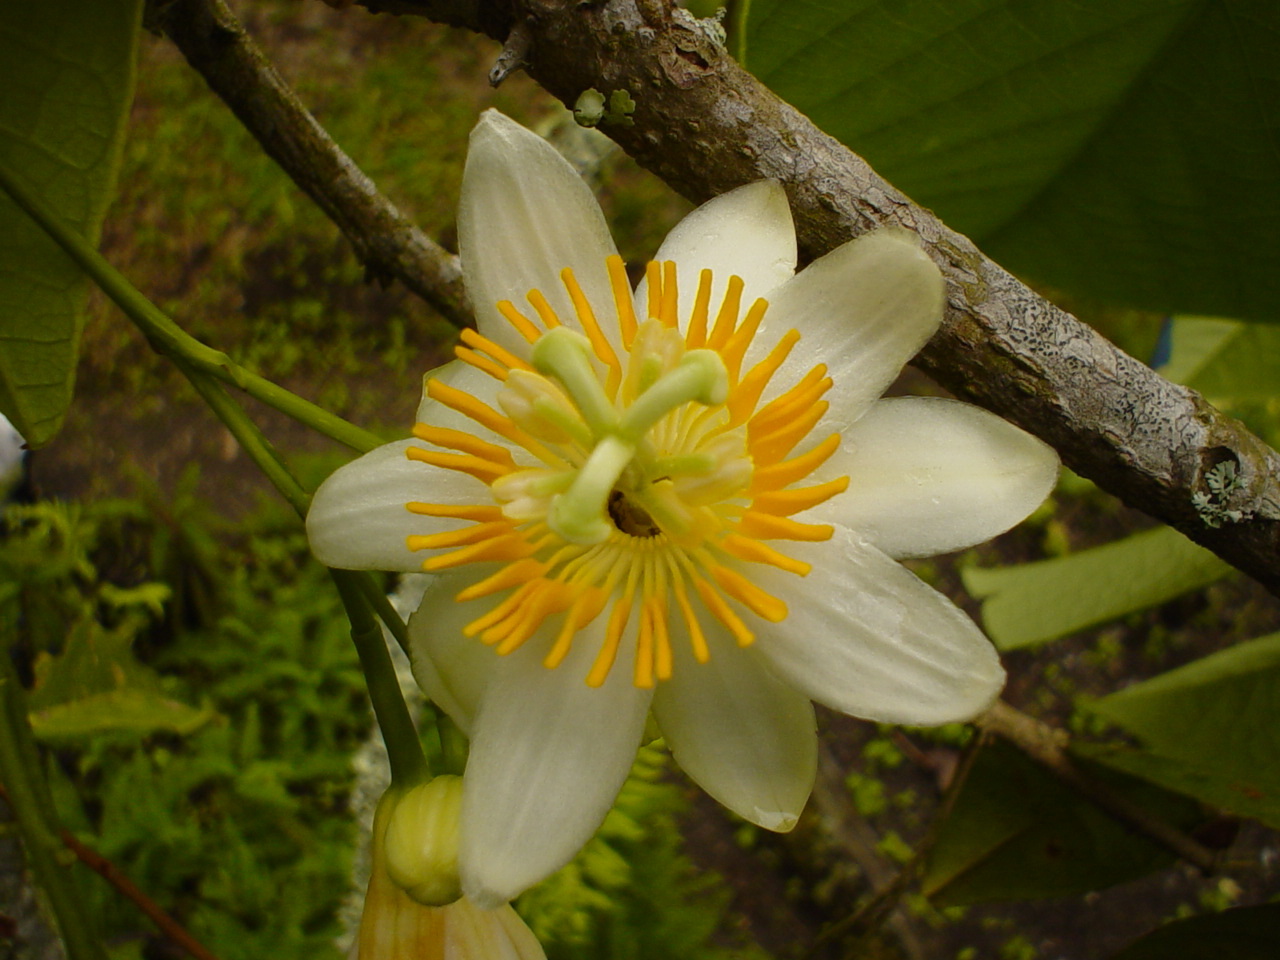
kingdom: Plantae
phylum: Tracheophyta
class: Magnoliopsida
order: Malpighiales
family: Passifloraceae
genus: Passiflora
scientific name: Passiflora magnoliifolia
